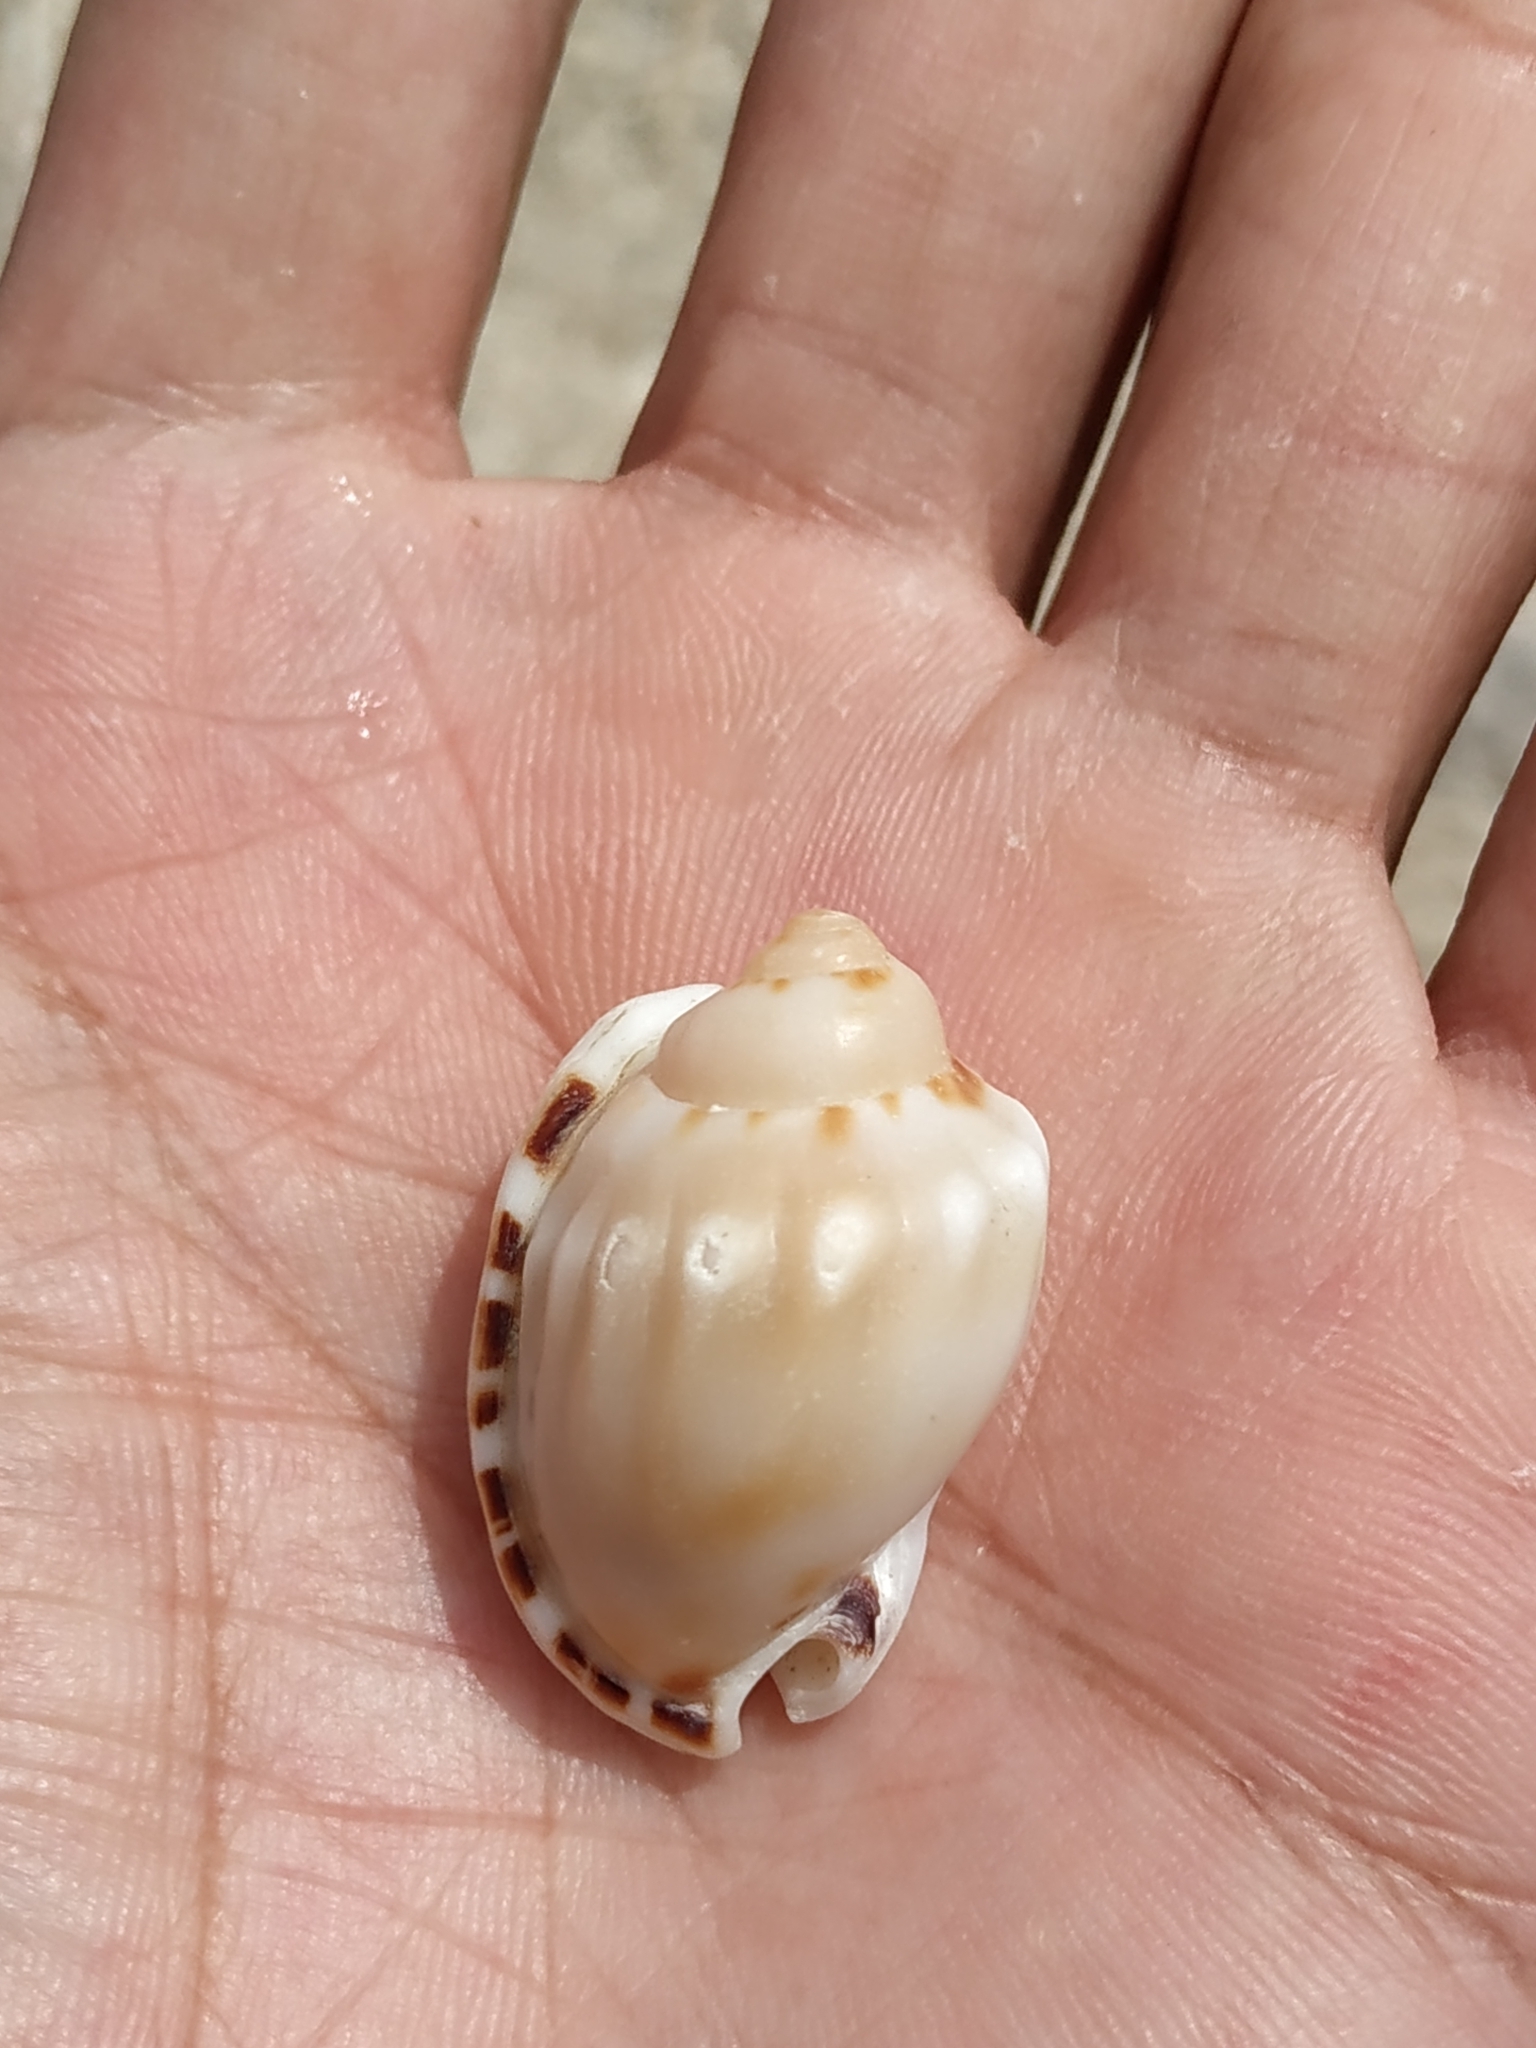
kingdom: Animalia
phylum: Mollusca
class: Gastropoda
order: Littorinimorpha
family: Cassidae
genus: Casmaria
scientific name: Casmaria erinaceus
